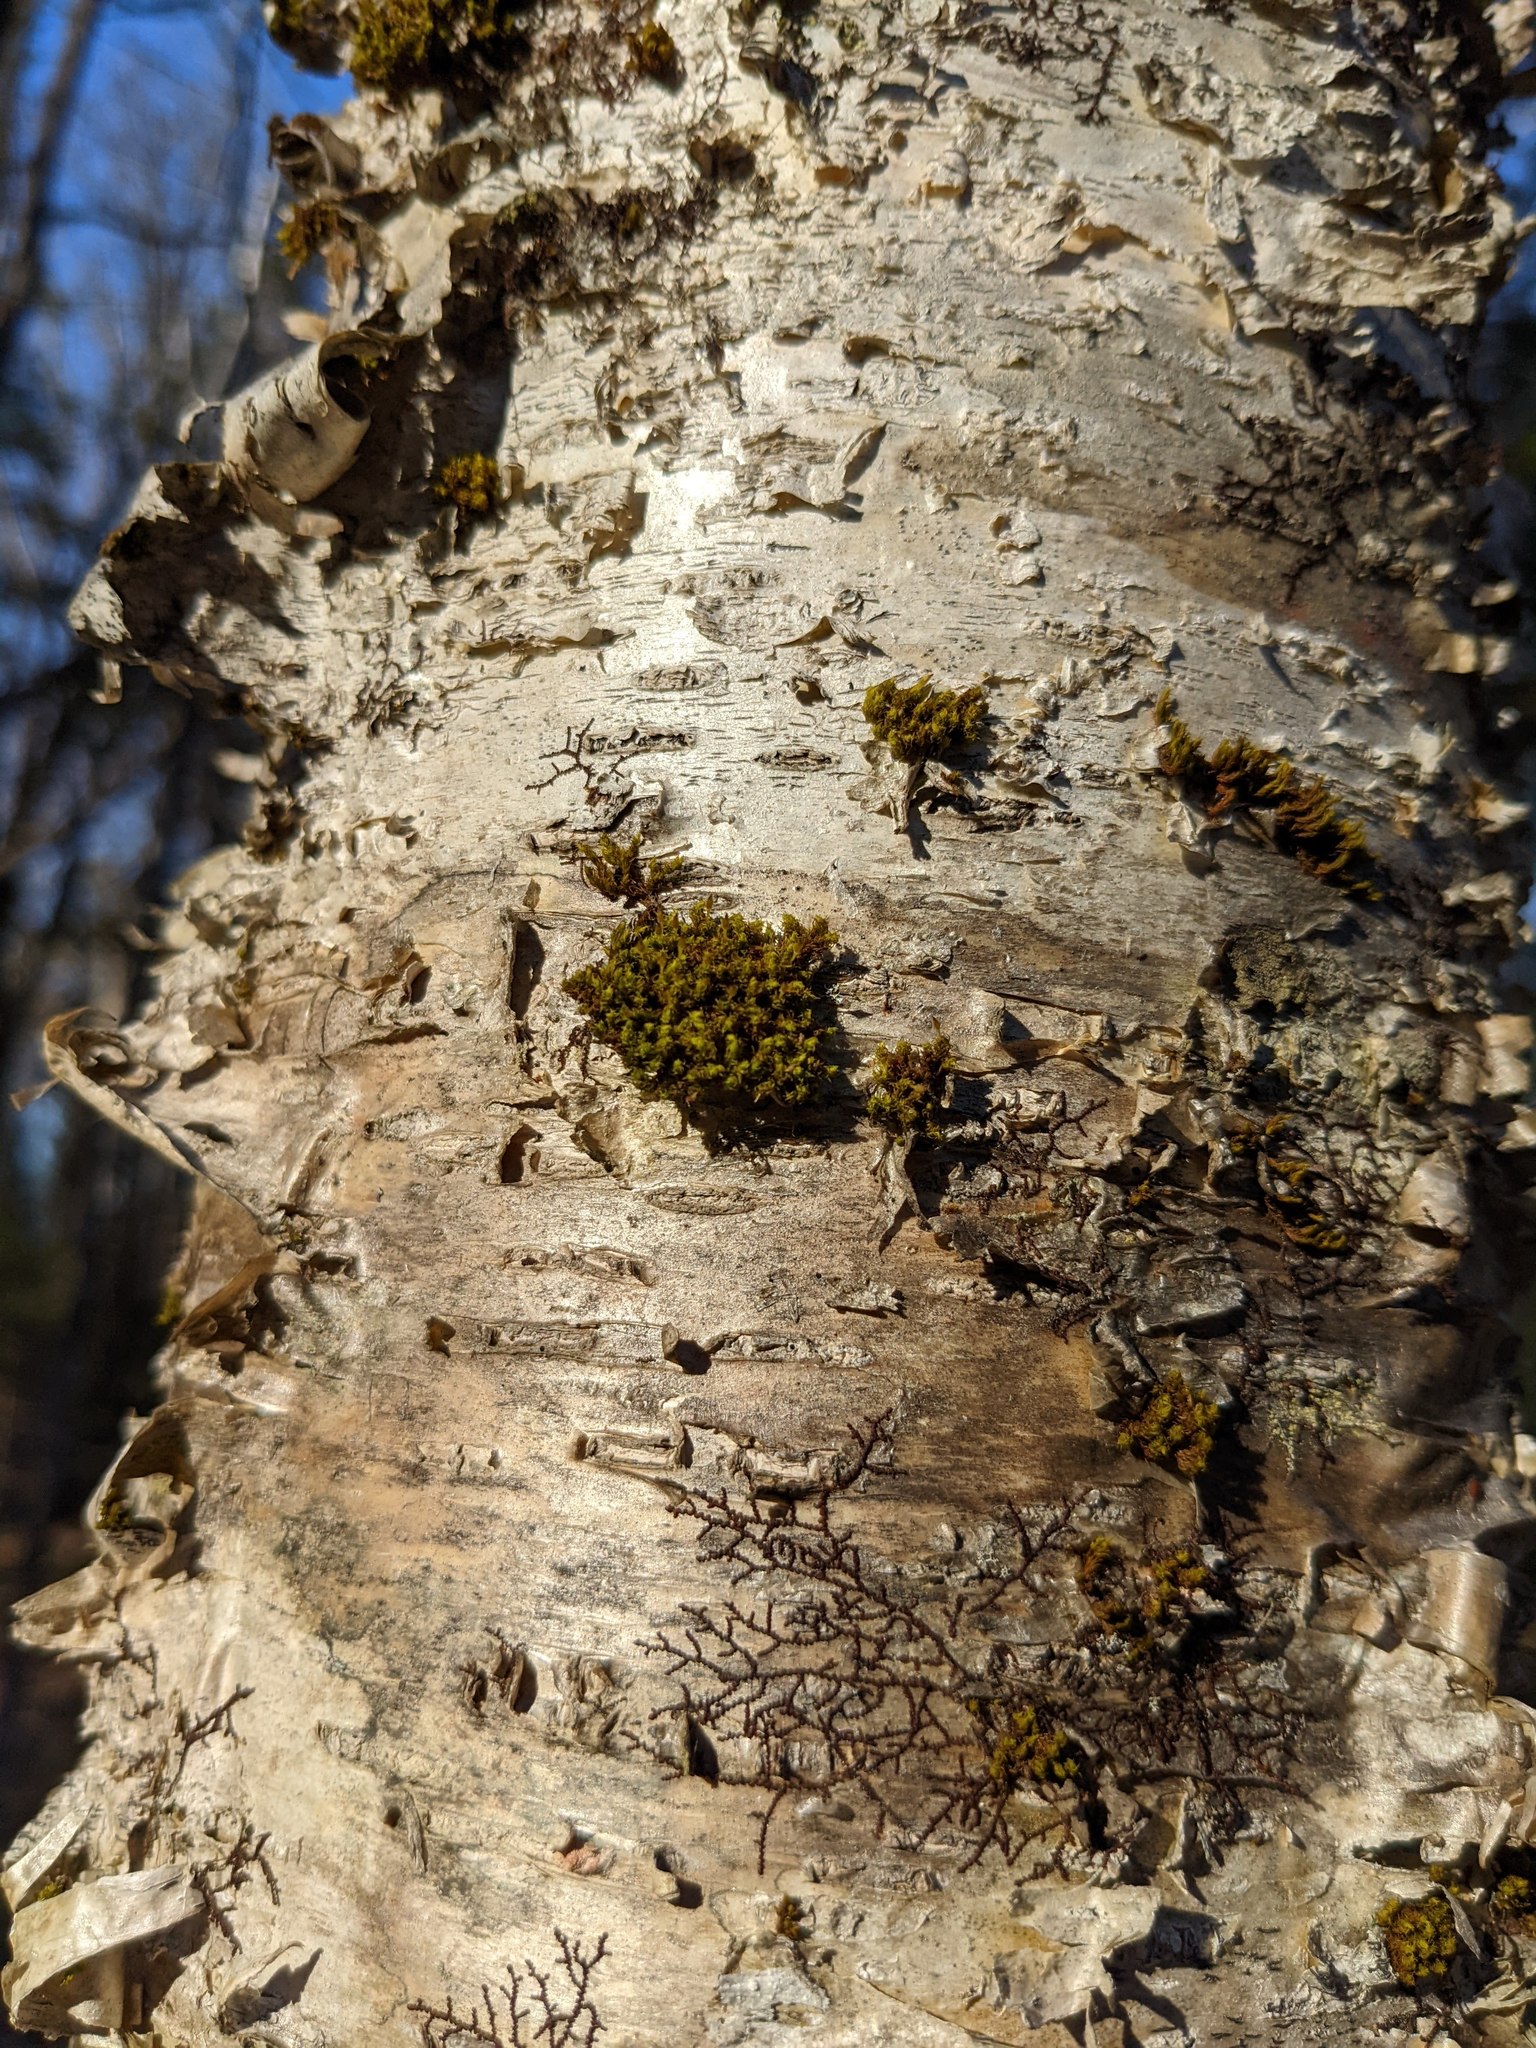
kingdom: Plantae
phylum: Bryophyta
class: Bryopsida
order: Orthotrichales
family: Orthotrichaceae
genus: Ulota
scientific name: Ulota crispa
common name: Crisped pincushion moss
